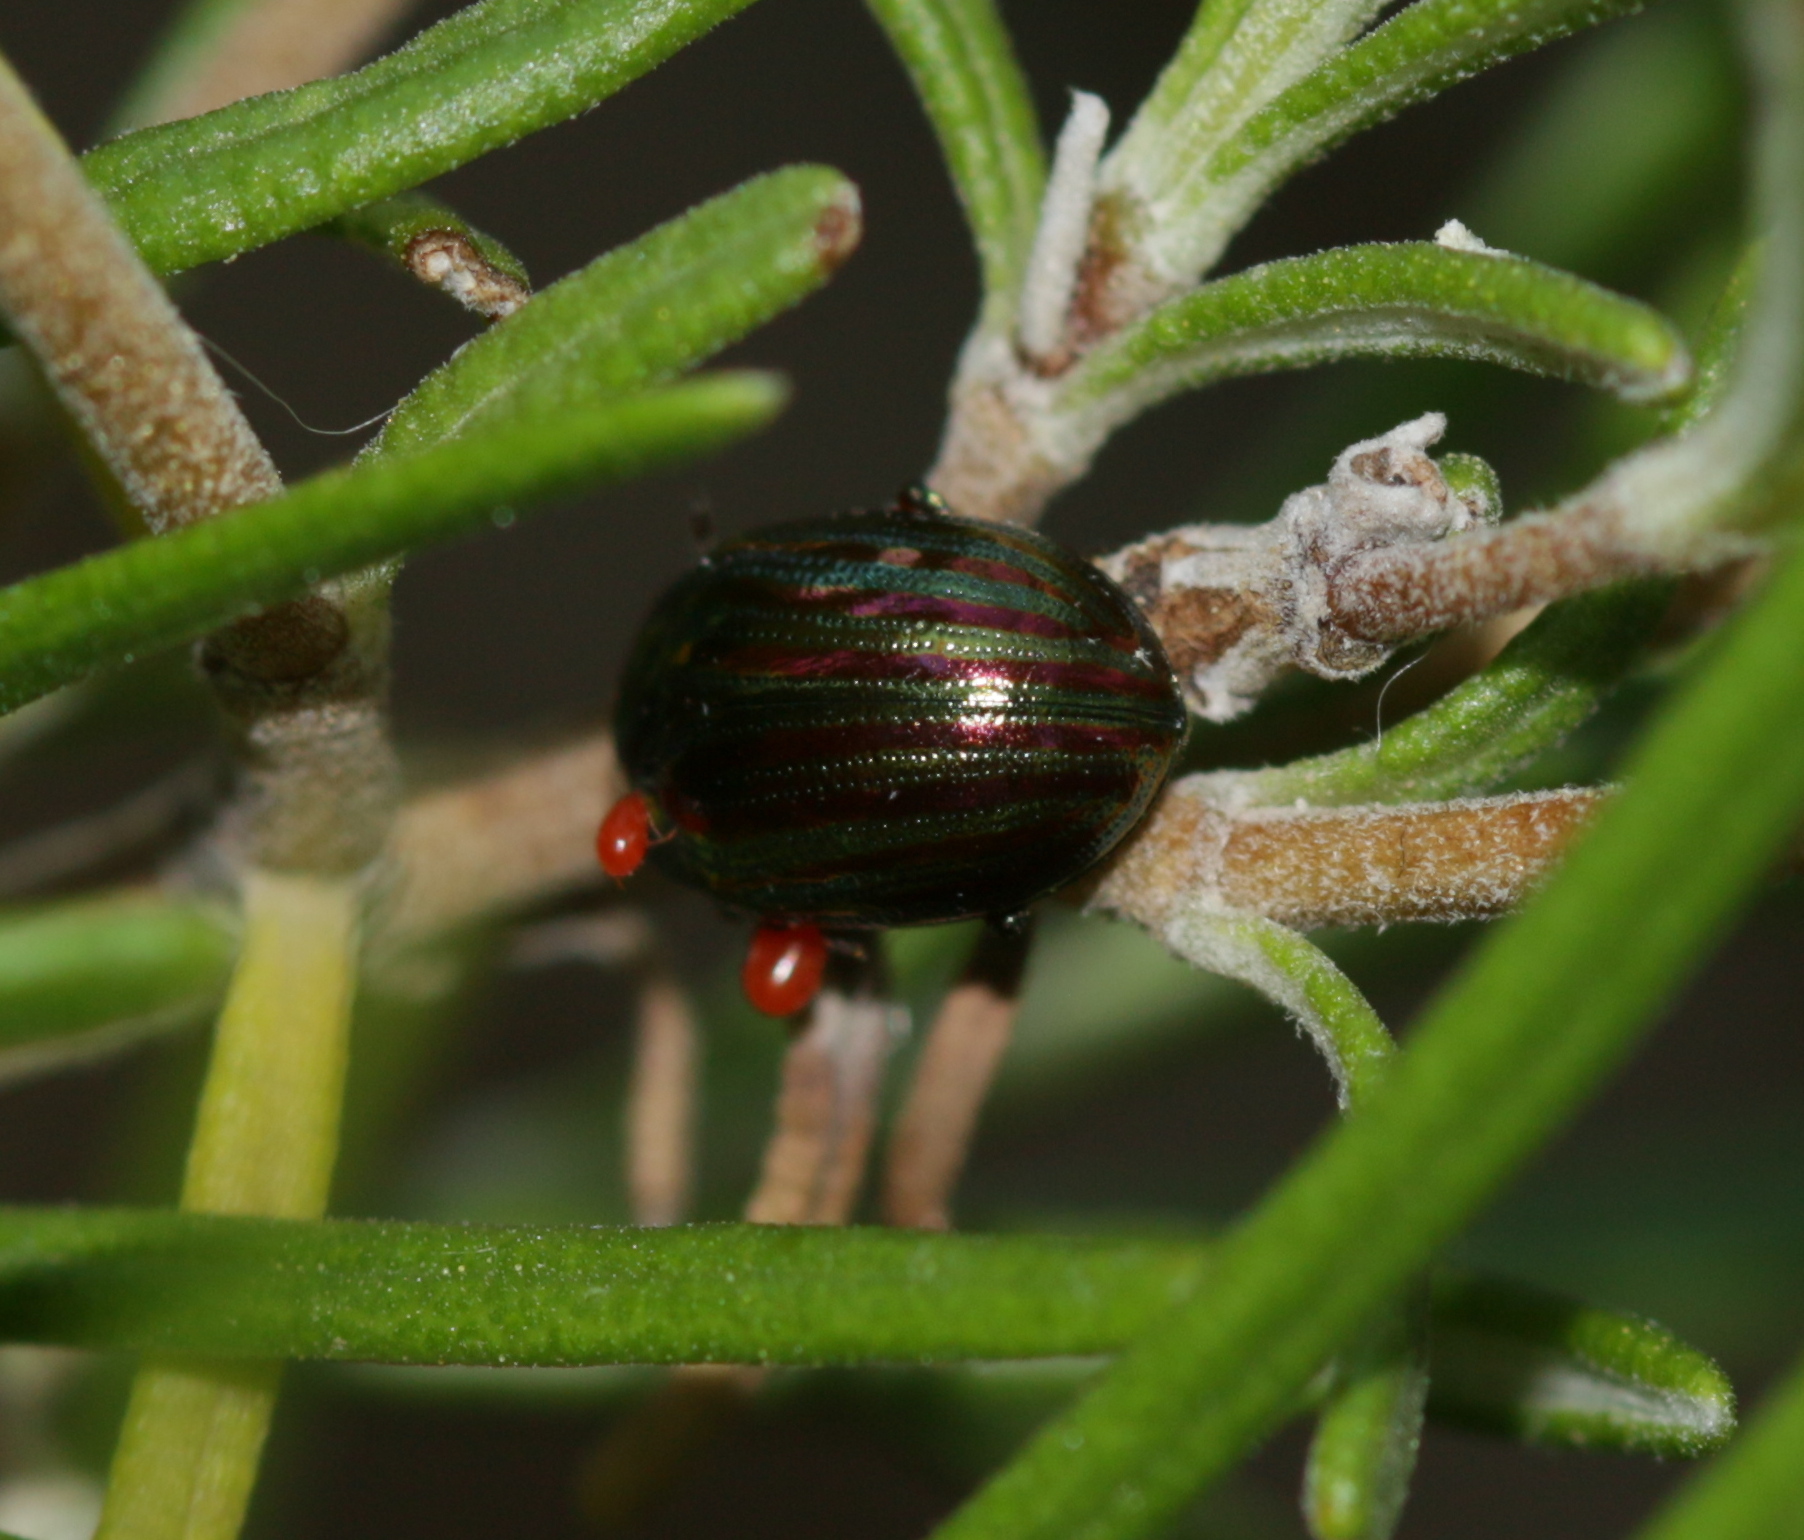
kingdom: Animalia
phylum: Arthropoda
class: Insecta
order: Coleoptera
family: Chrysomelidae
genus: Chrysolina
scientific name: Chrysolina americana
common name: Rosemary beetle
